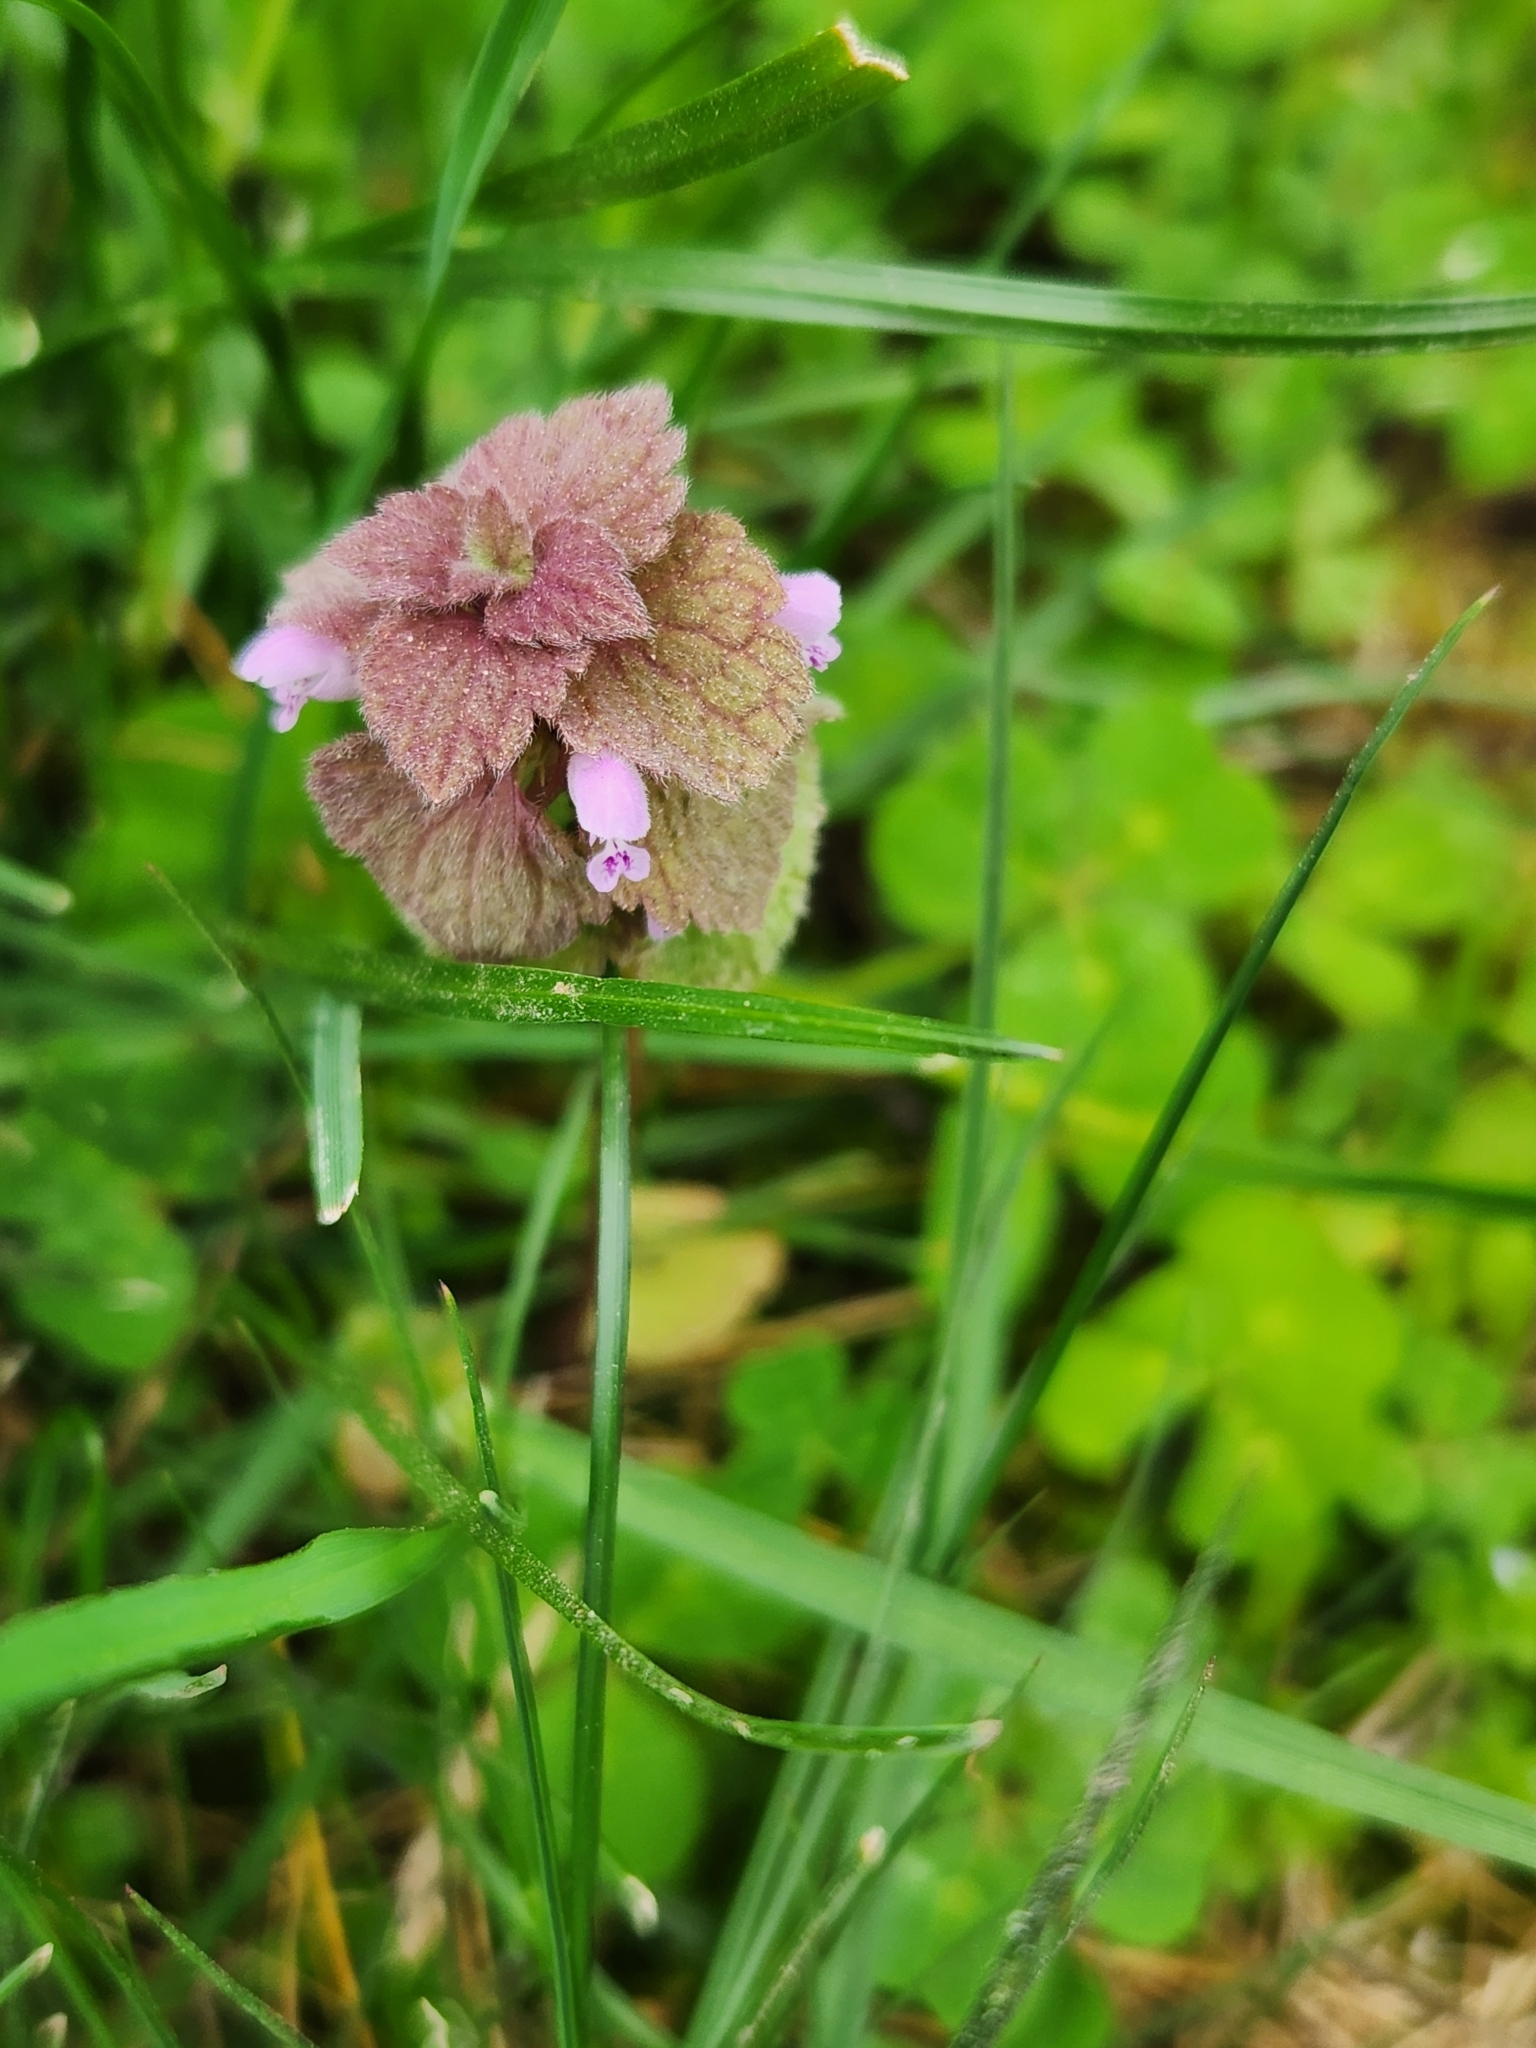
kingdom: Plantae
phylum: Tracheophyta
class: Magnoliopsida
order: Lamiales
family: Lamiaceae
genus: Lamium
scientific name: Lamium purpureum
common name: Red dead-nettle
